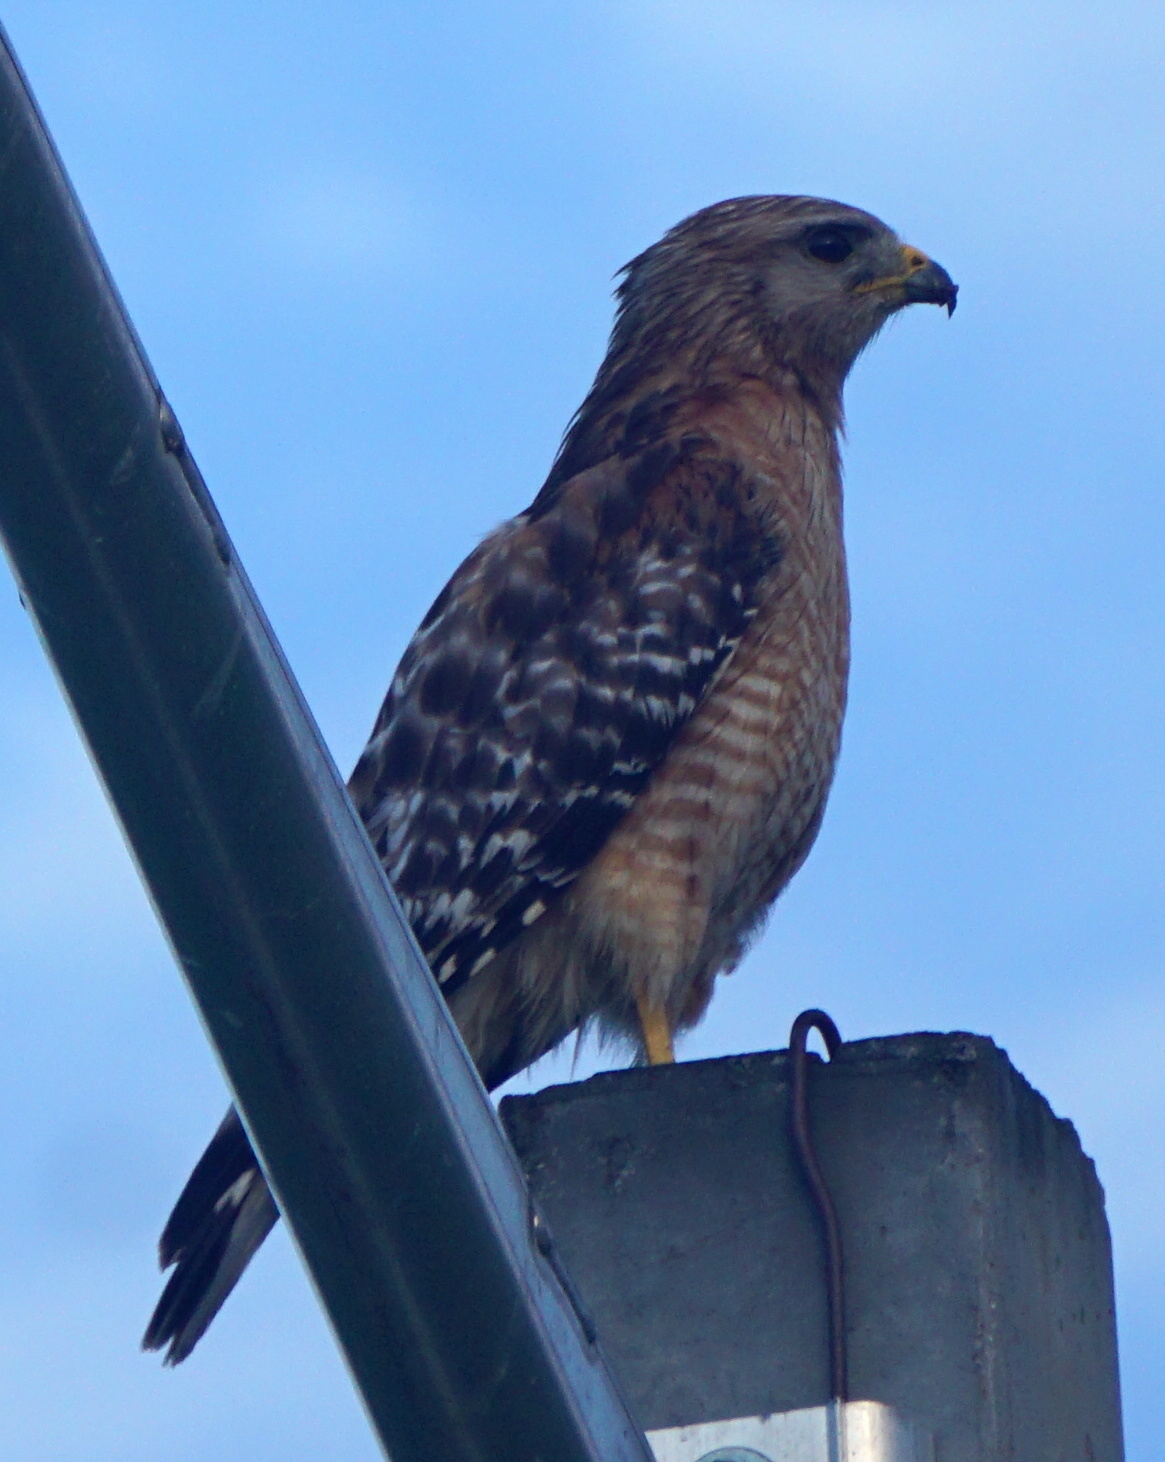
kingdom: Animalia
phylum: Chordata
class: Aves
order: Accipitriformes
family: Accipitridae
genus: Buteo
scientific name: Buteo lineatus
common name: Red-shouldered hawk
